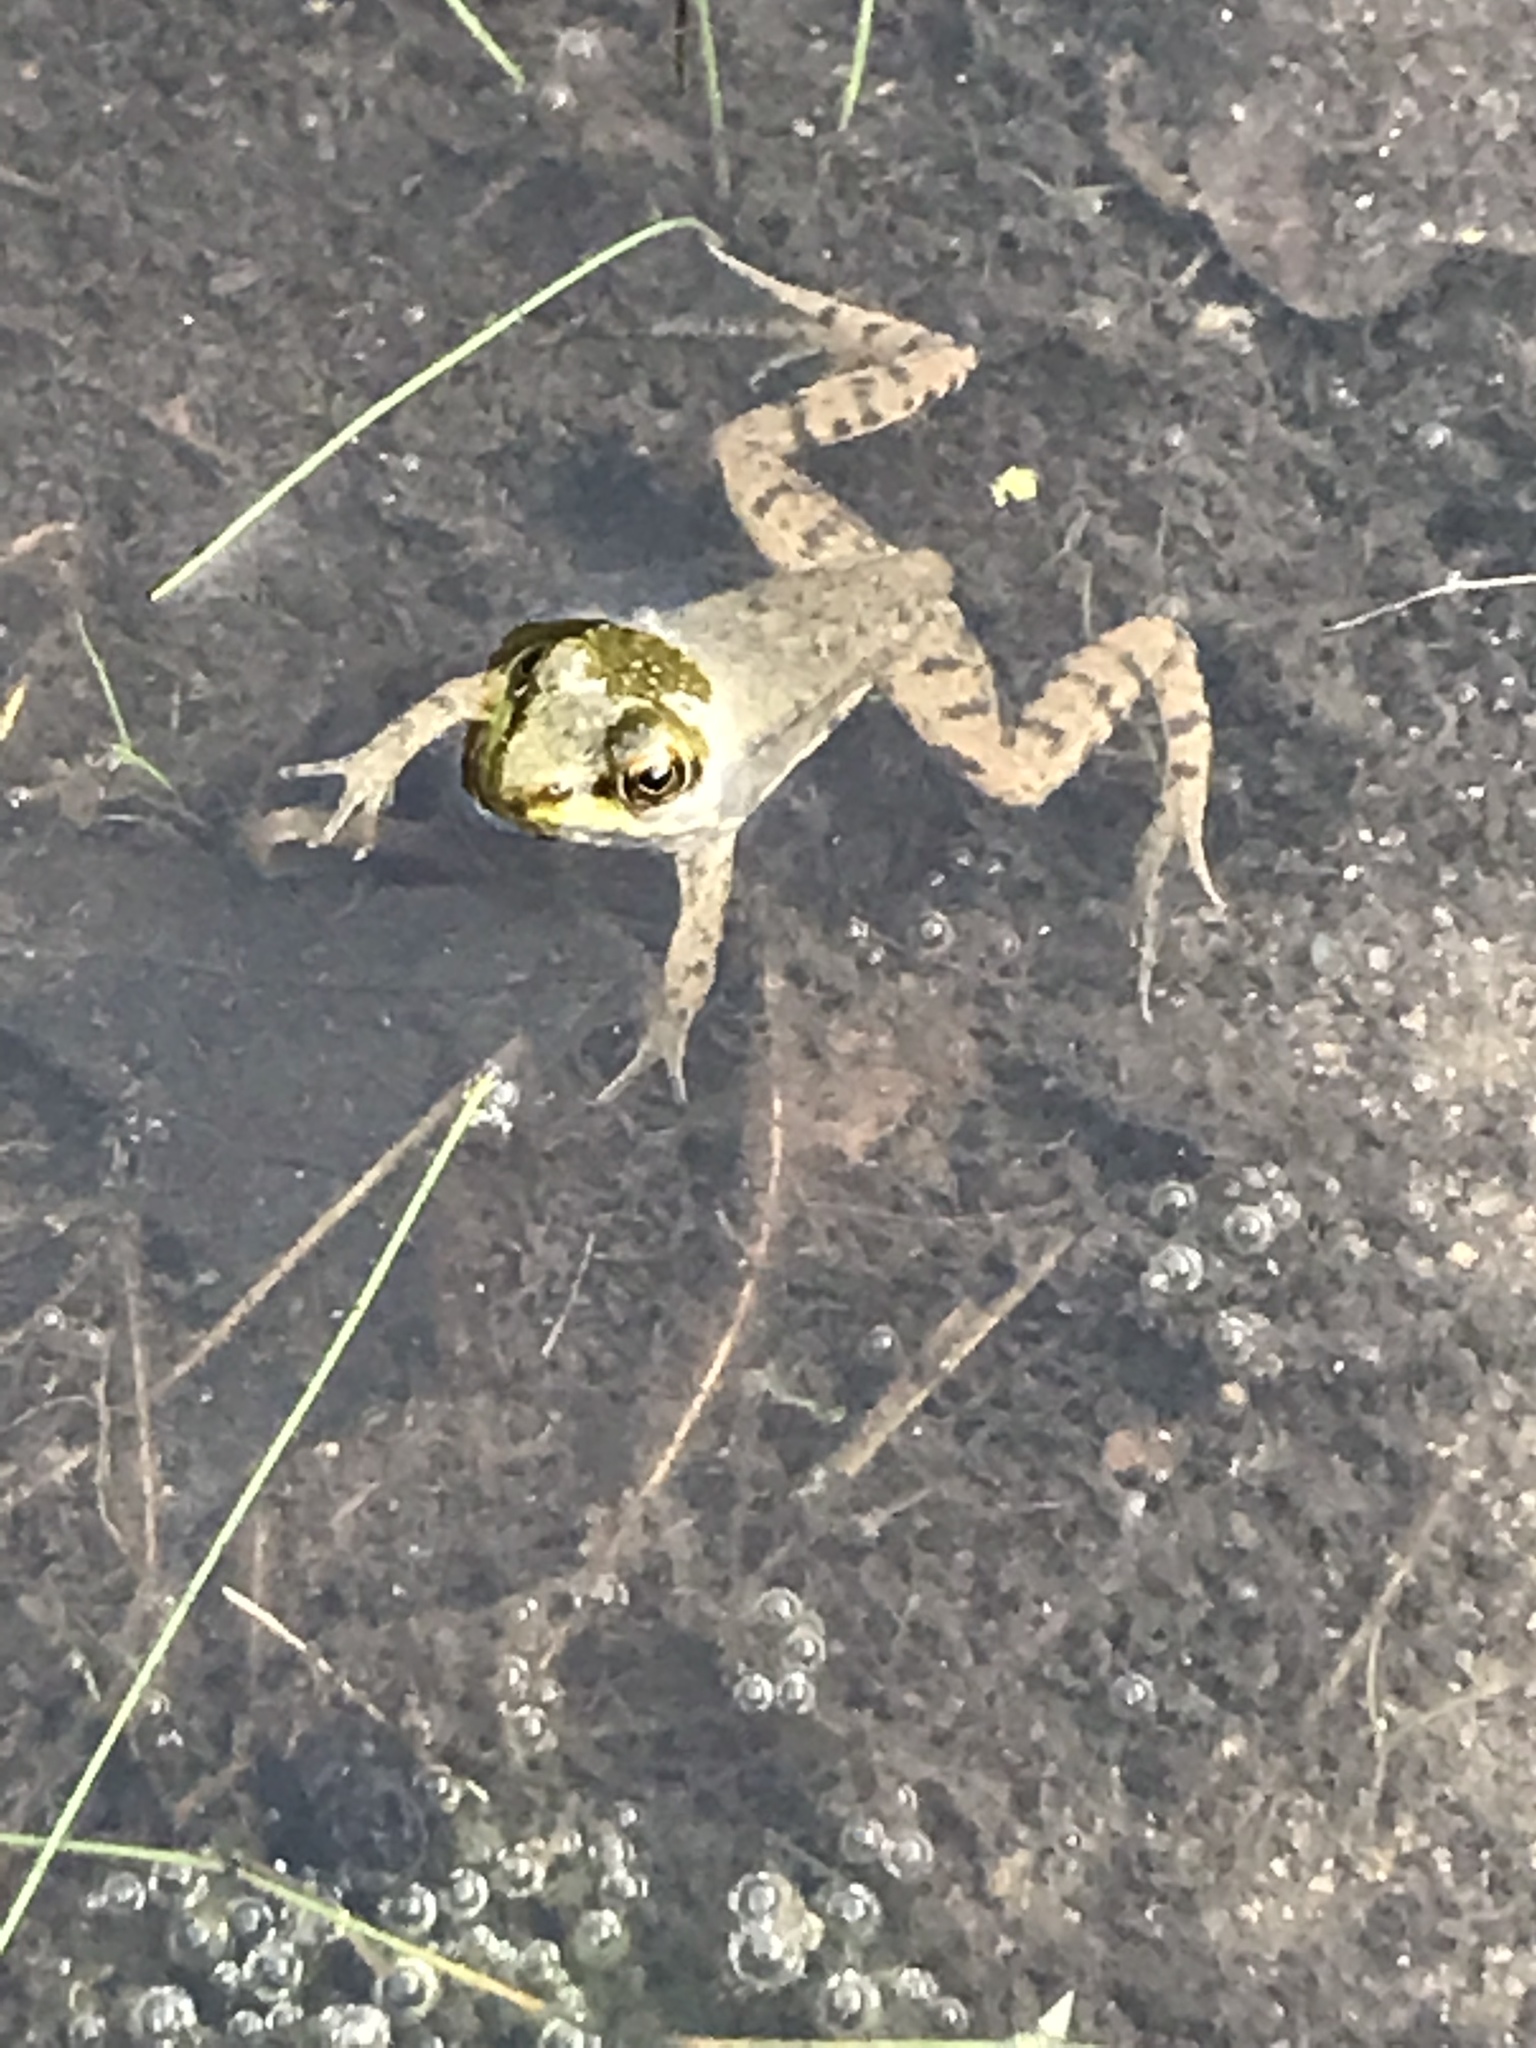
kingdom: Animalia
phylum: Chordata
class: Amphibia
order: Anura
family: Ranidae
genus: Lithobates
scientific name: Lithobates clamitans
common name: Green frog
